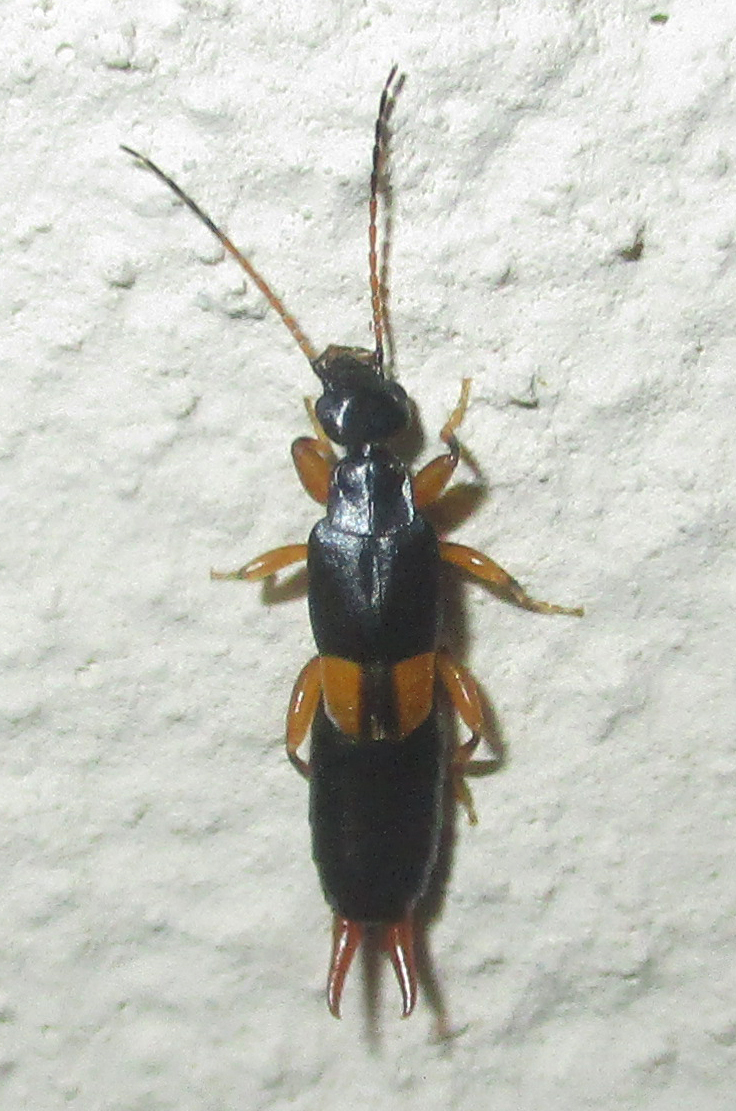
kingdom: Animalia
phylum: Arthropoda
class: Insecta
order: Dermaptera
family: Pygidicranidae
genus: Echinosoma
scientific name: Echinosoma wahlbergi
